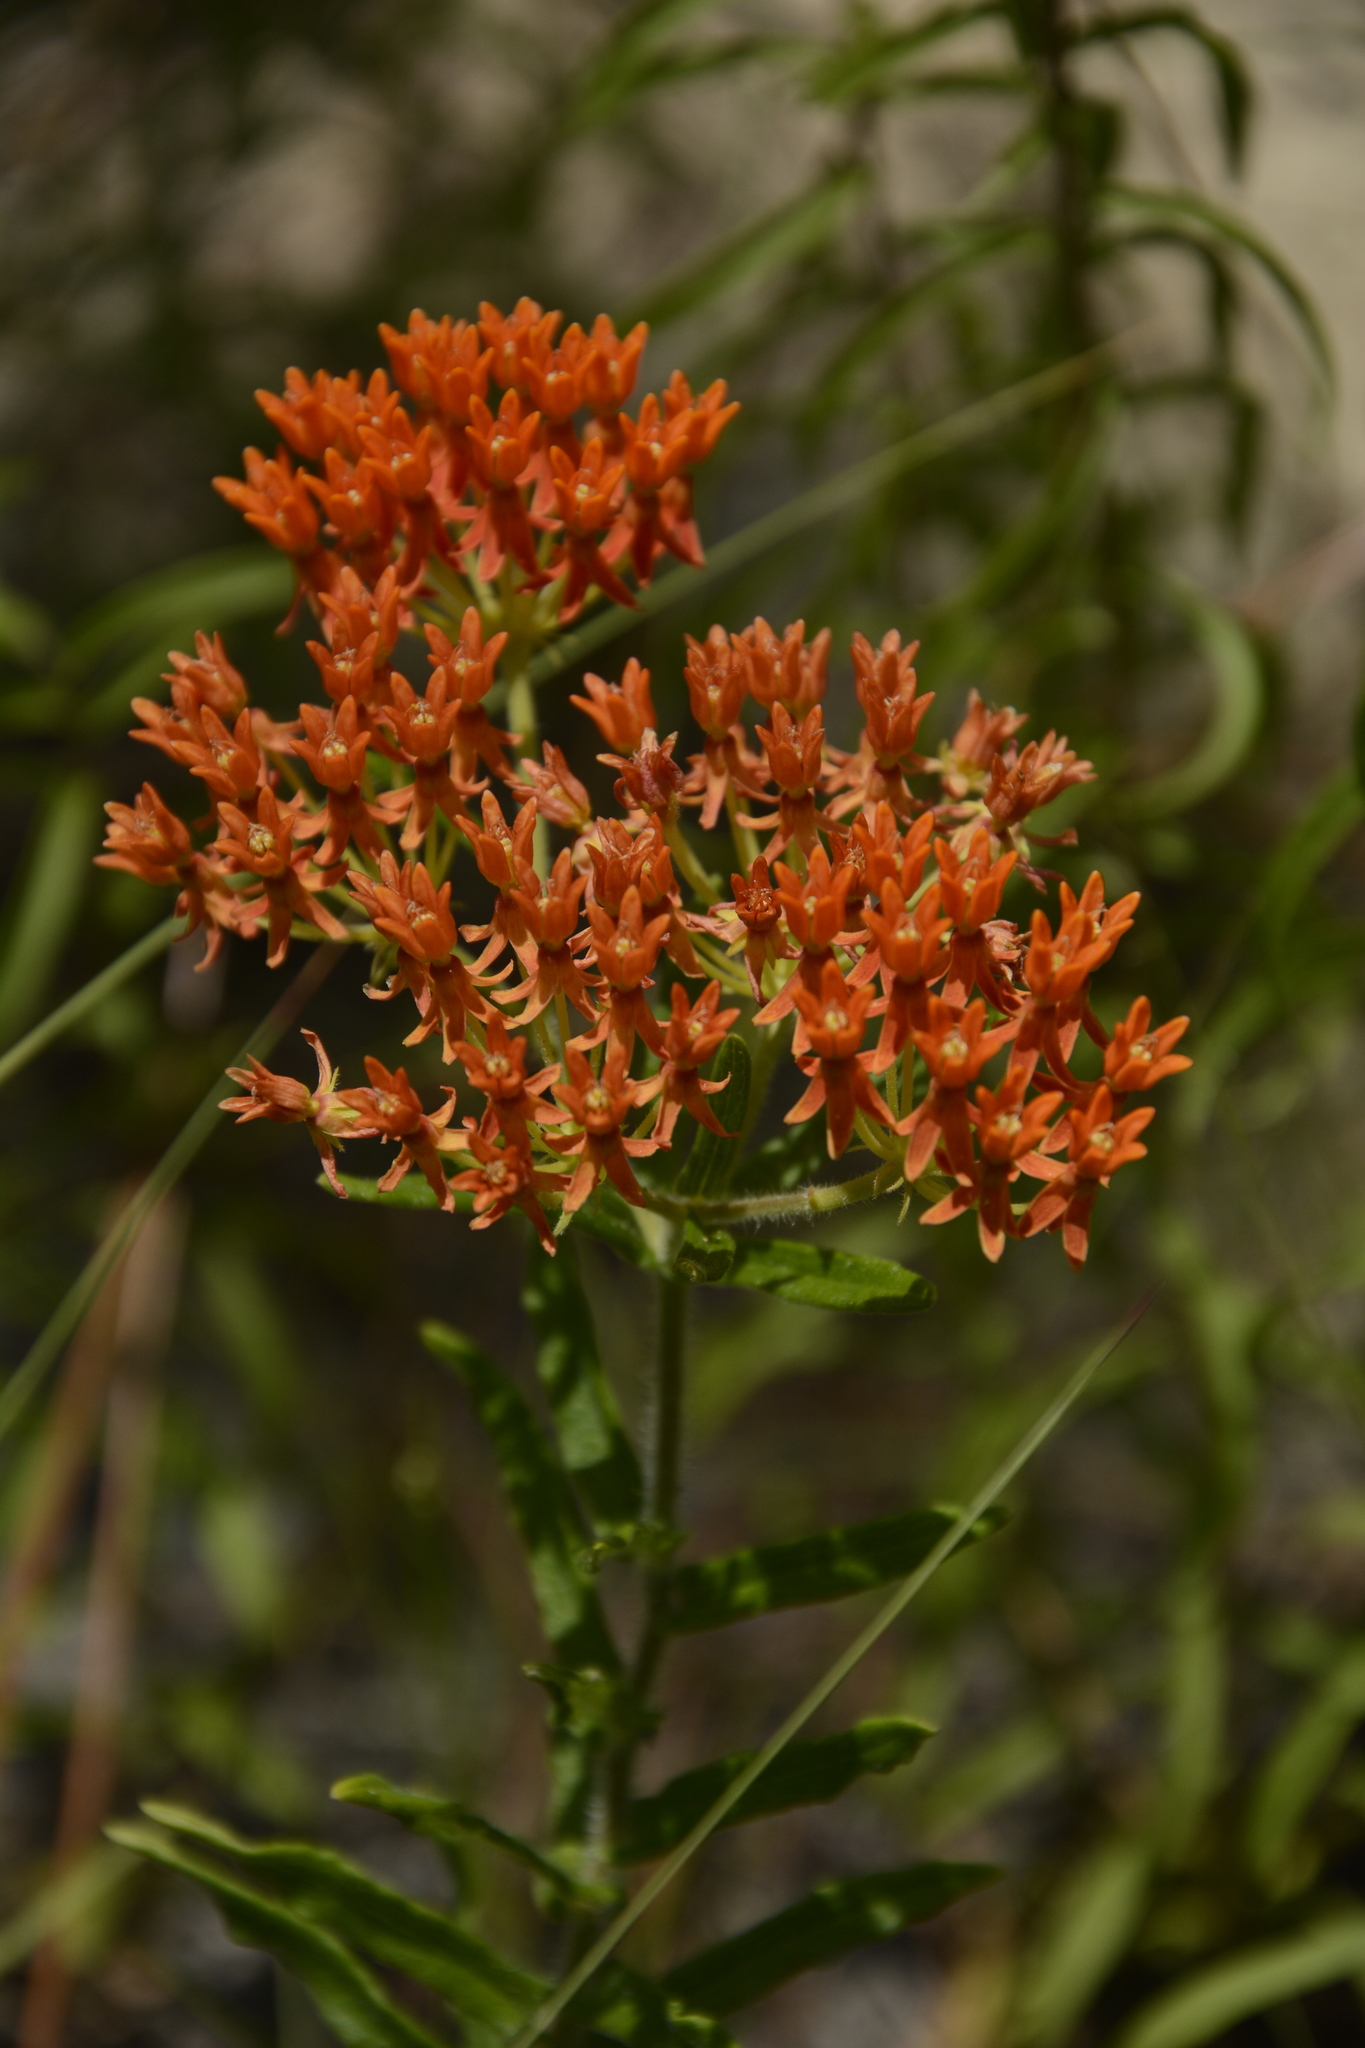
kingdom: Plantae
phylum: Tracheophyta
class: Magnoliopsida
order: Gentianales
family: Apocynaceae
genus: Asclepias
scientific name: Asclepias tuberosa
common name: Butterfly milkweed
